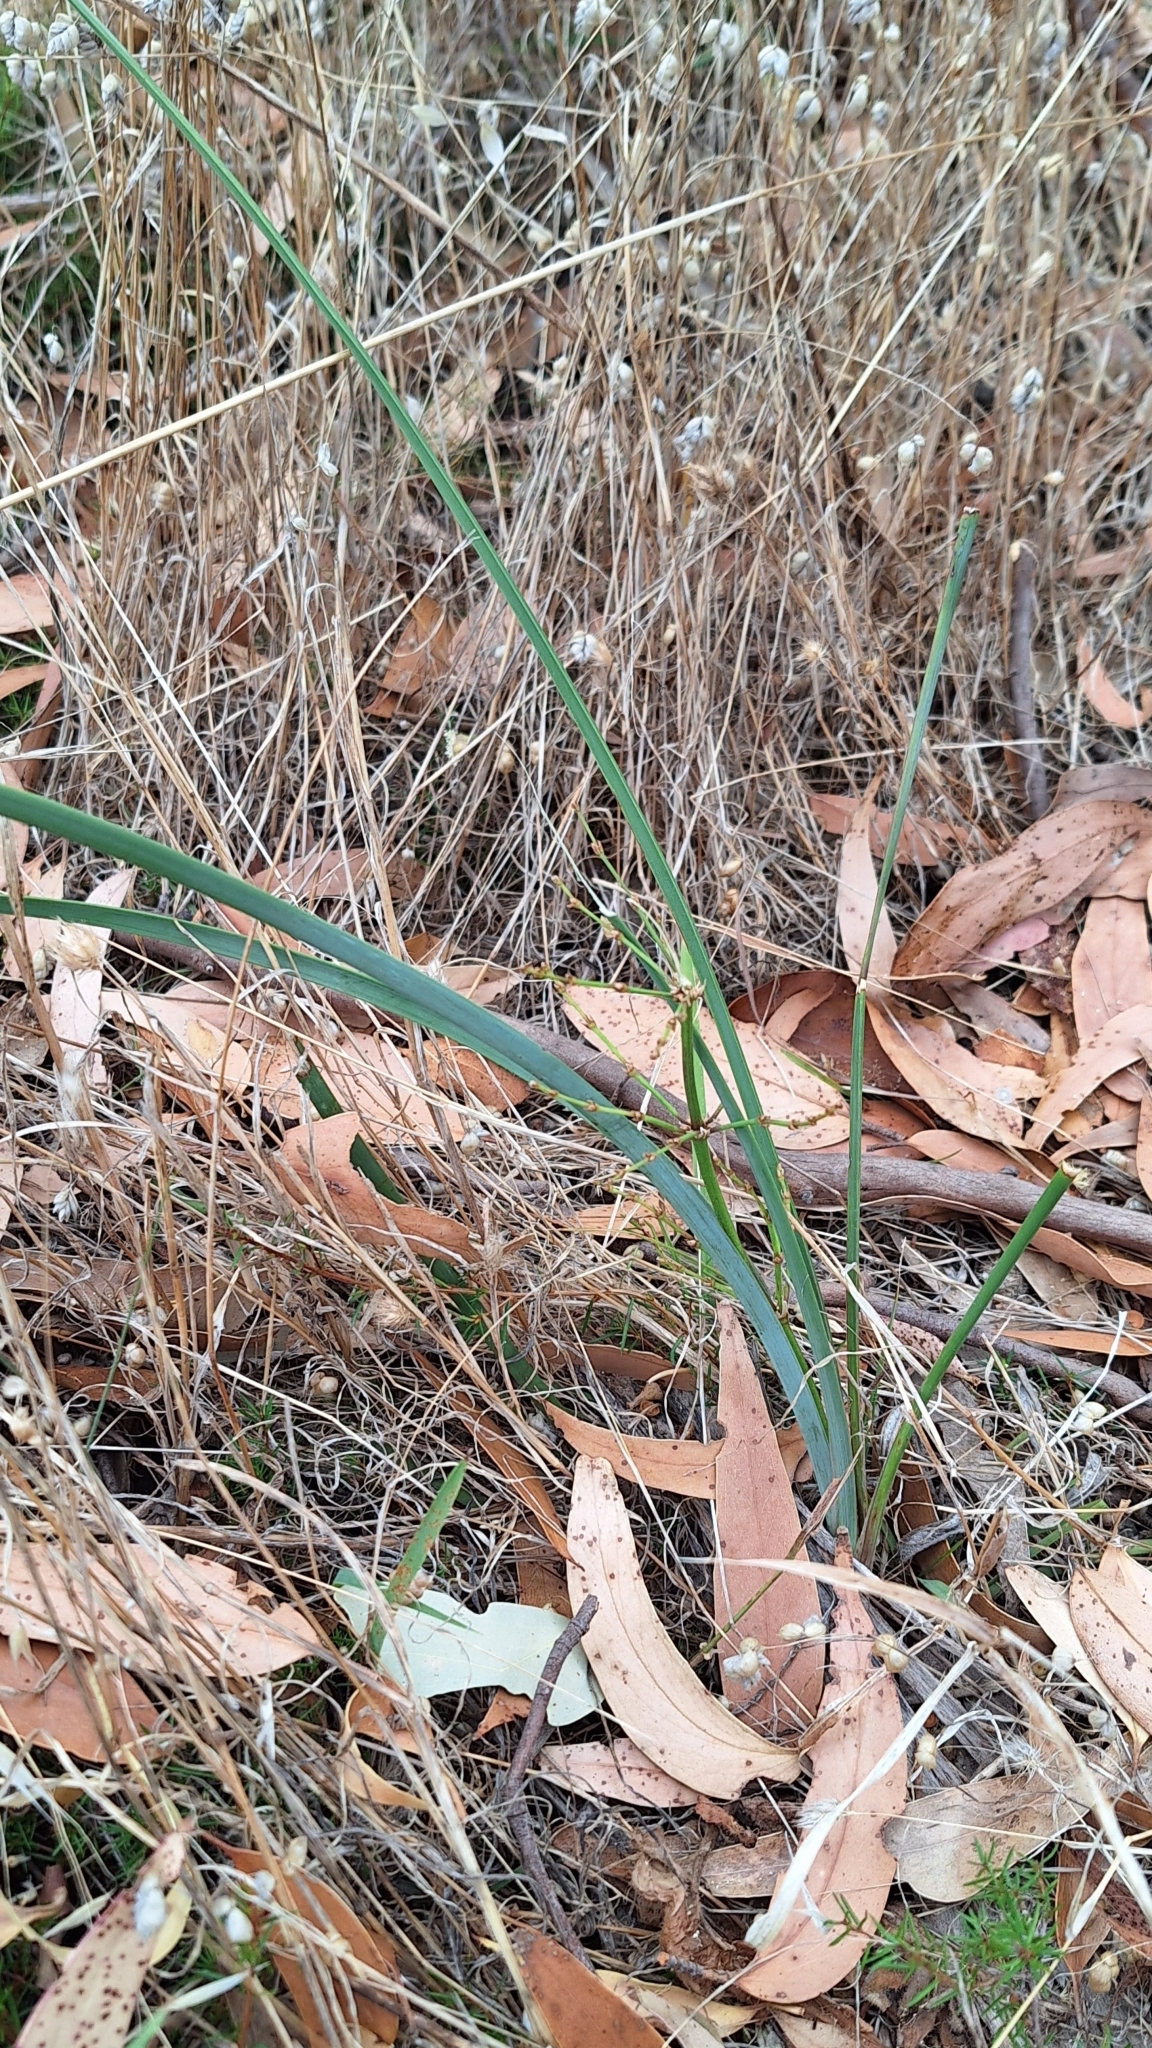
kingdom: Plantae
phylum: Tracheophyta
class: Liliopsida
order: Asparagales
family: Asparagaceae
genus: Lomandra
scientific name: Lomandra multiflora
